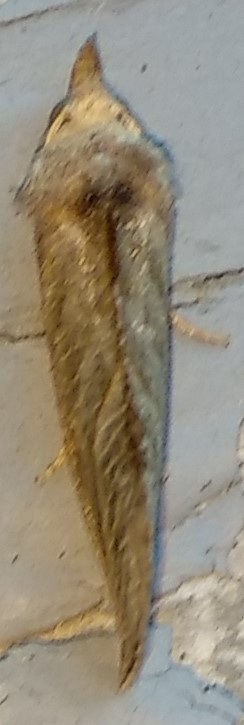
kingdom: Animalia
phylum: Arthropoda
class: Insecta
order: Lepidoptera
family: Erebidae
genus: Calyptra
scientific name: Calyptra canadensis
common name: Canadian owlet
